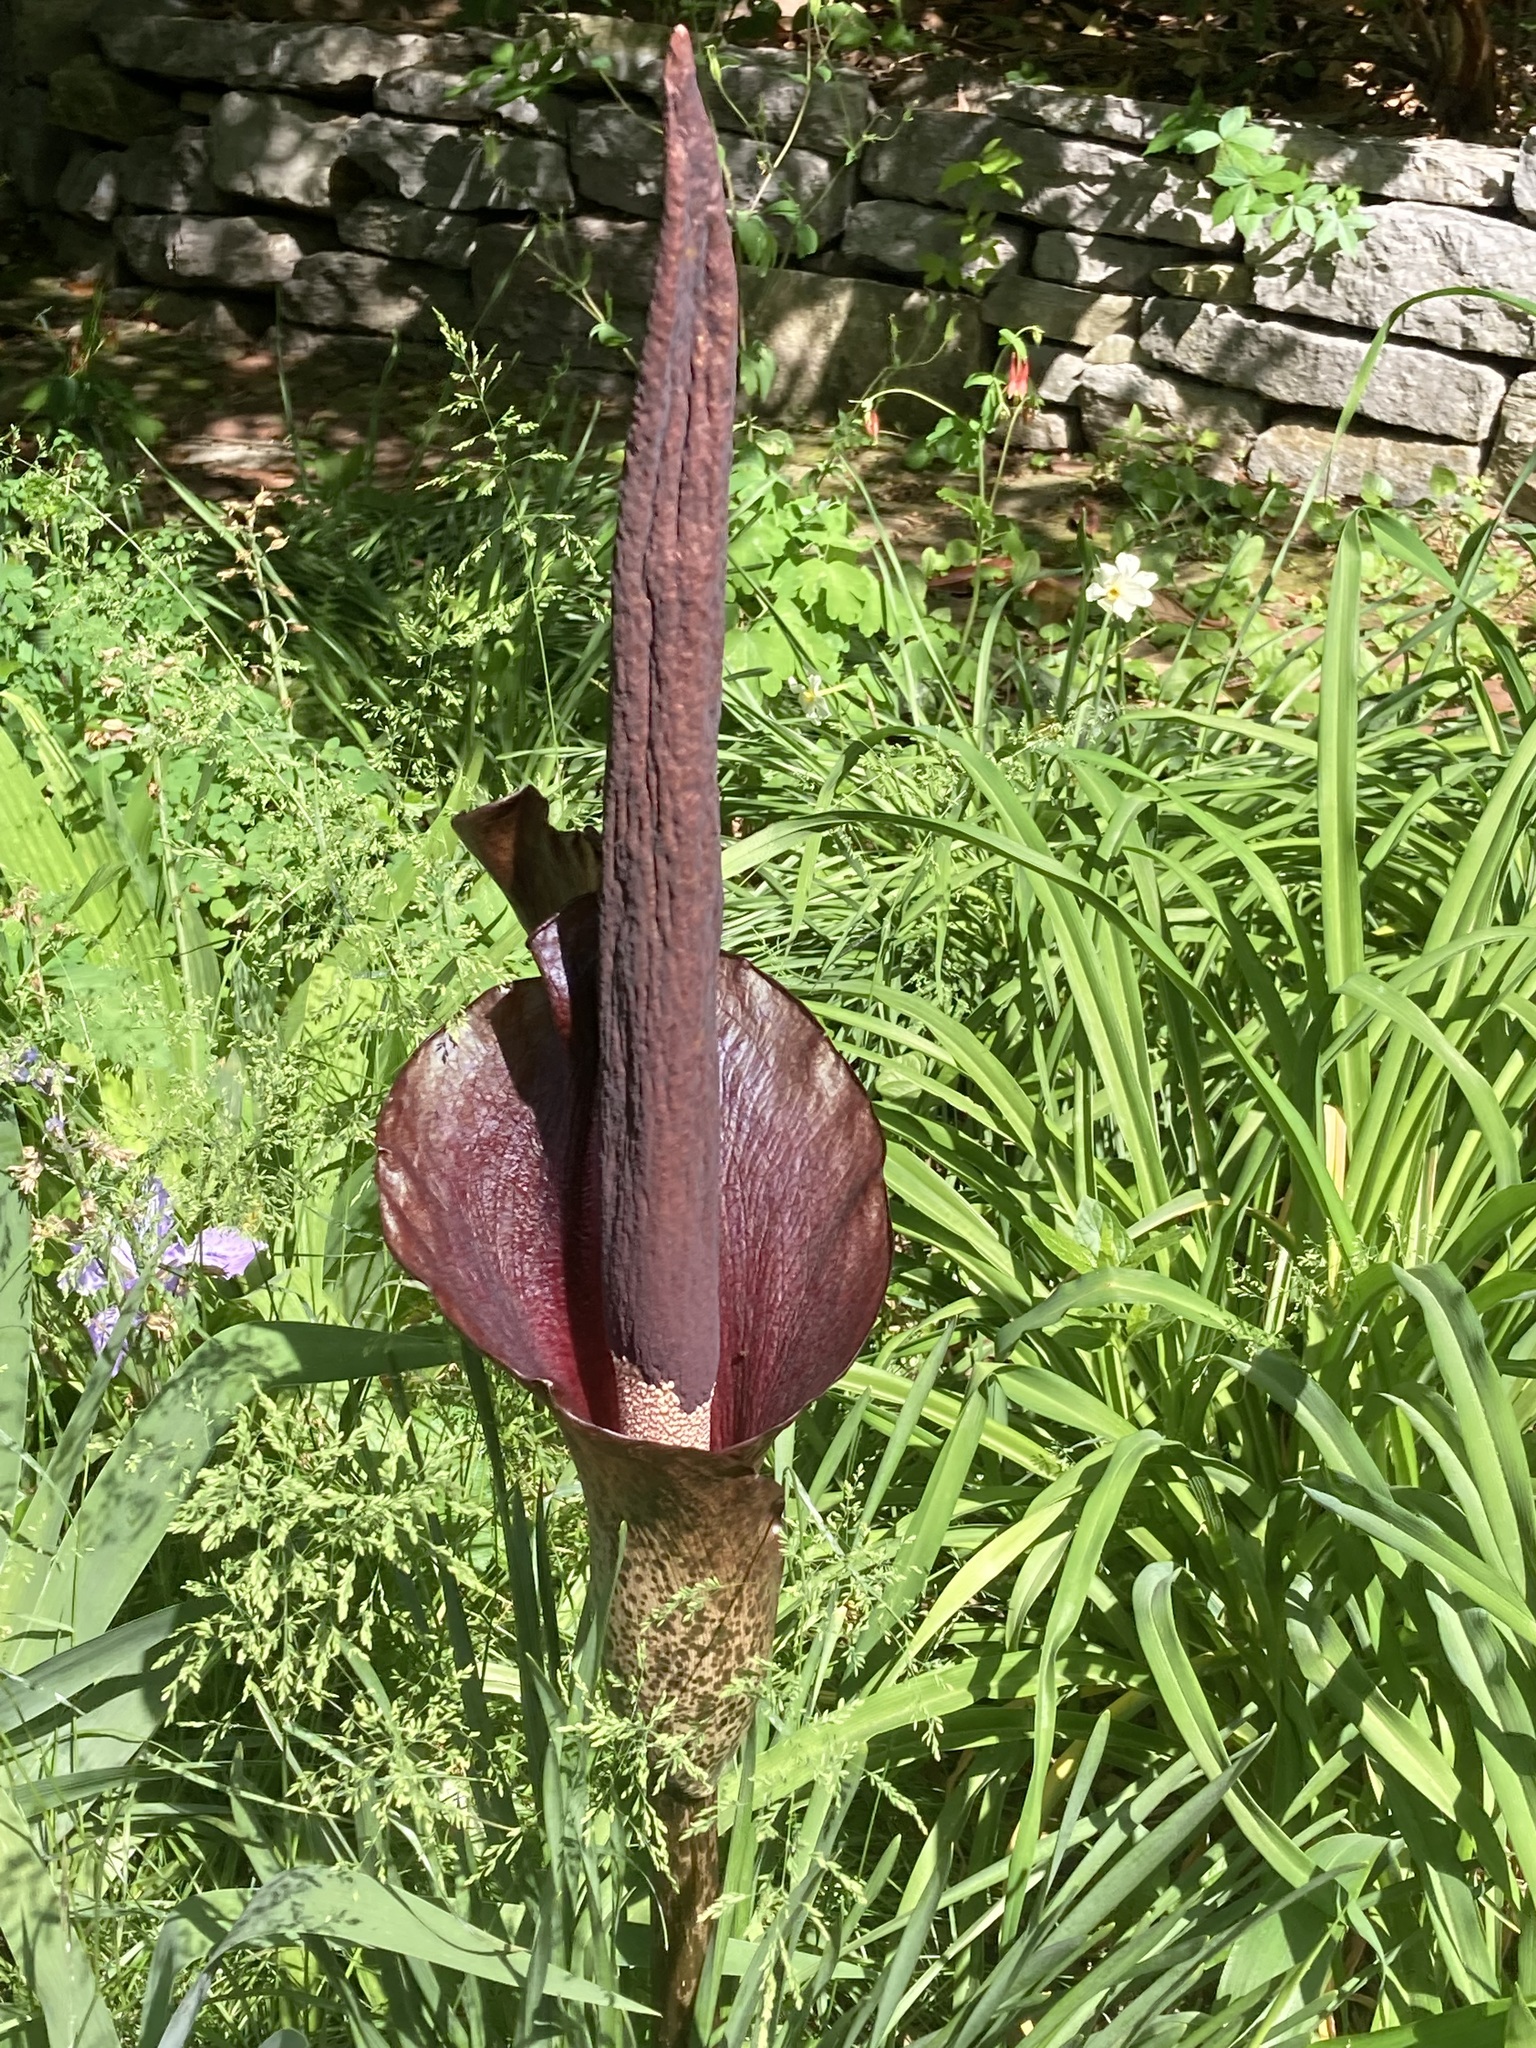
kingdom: Animalia
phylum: Chordata
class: Aves
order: Accipitriformes
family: Cathartidae
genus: Coragyps
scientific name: Coragyps atratus
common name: Black vulture
